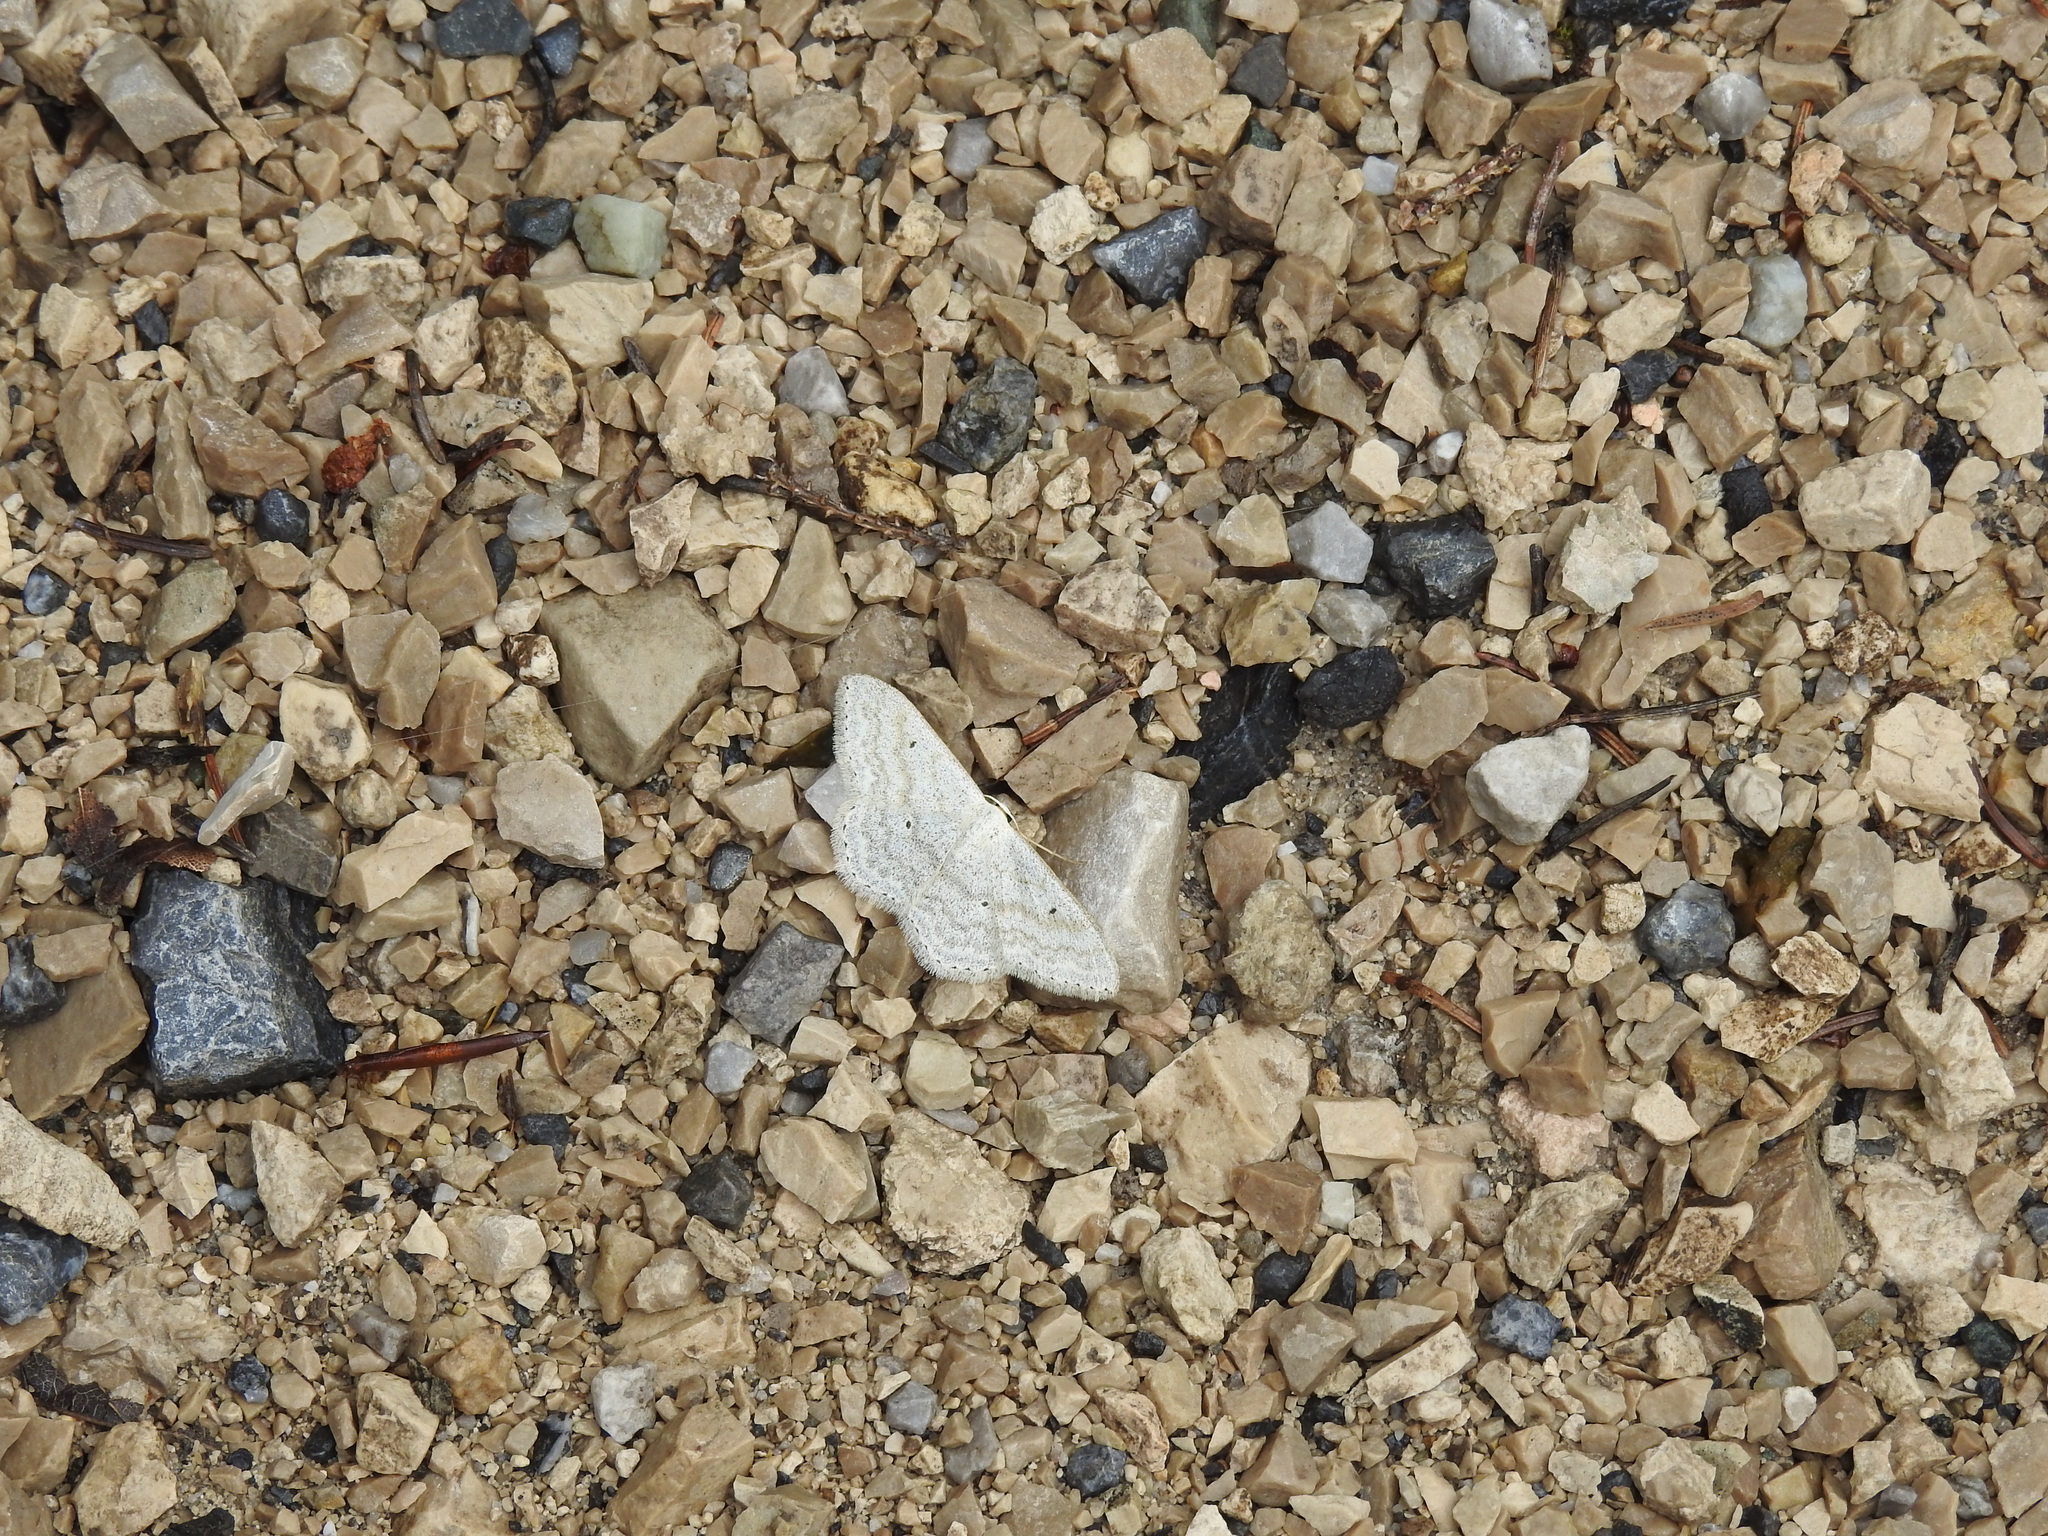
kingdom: Animalia
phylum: Arthropoda
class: Insecta
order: Lepidoptera
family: Geometridae
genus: Scopula
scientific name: Scopula incanata
